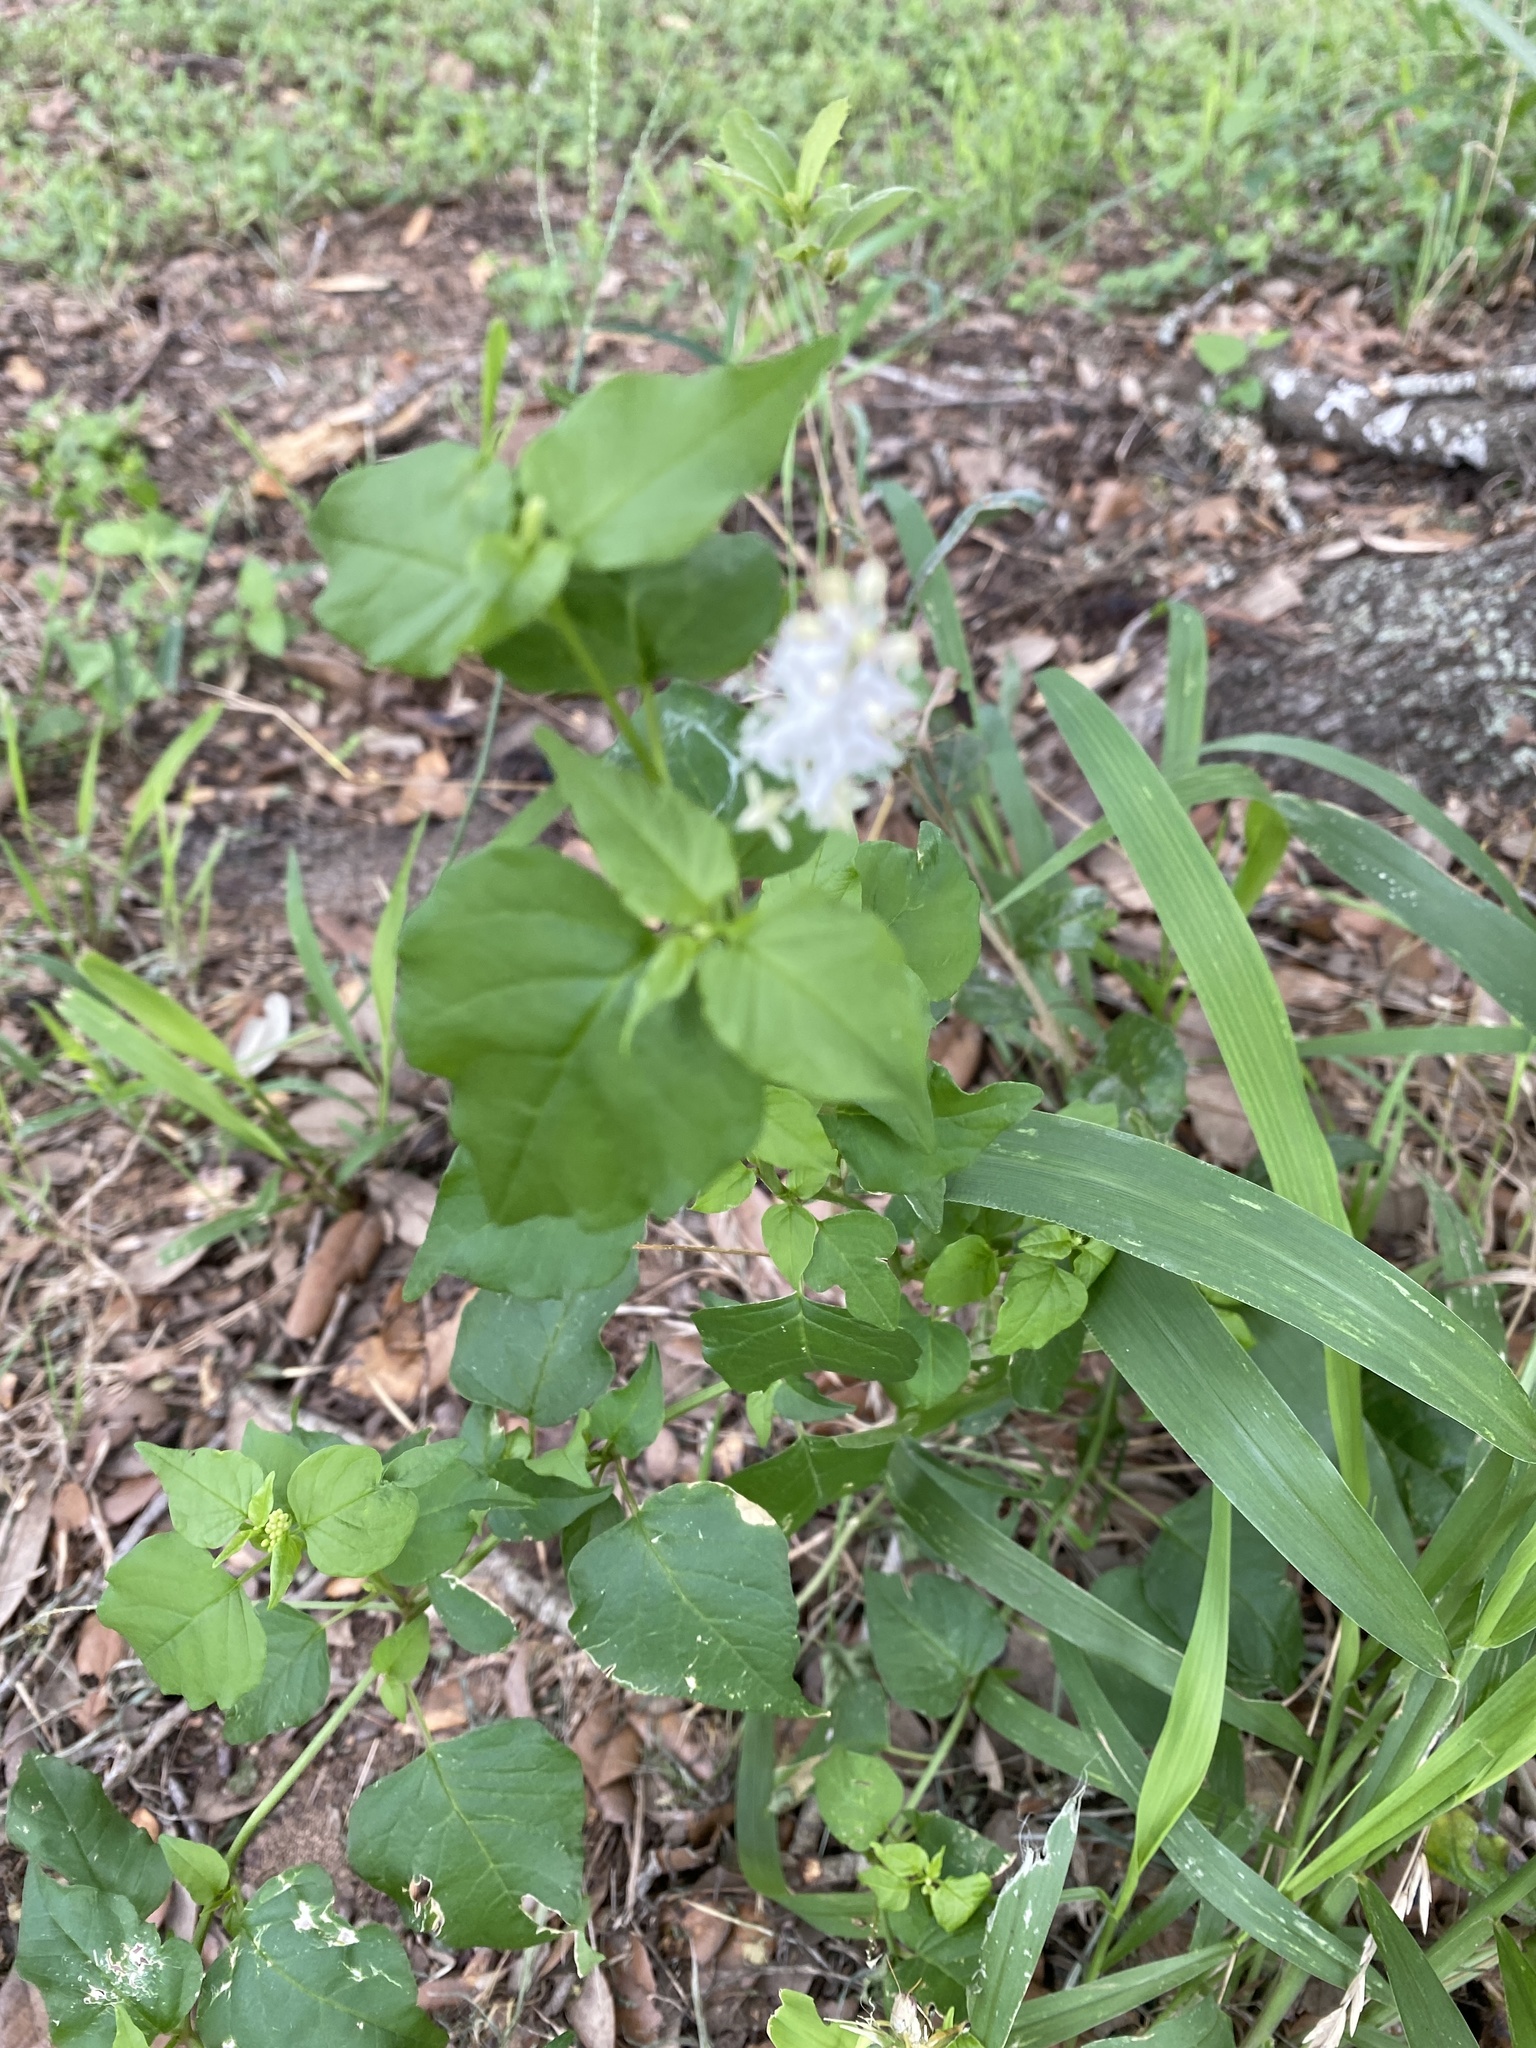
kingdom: Plantae
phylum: Tracheophyta
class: Magnoliopsida
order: Caryophyllales
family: Phytolaccaceae
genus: Rivina
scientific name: Rivina humilis
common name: Rougeplant
